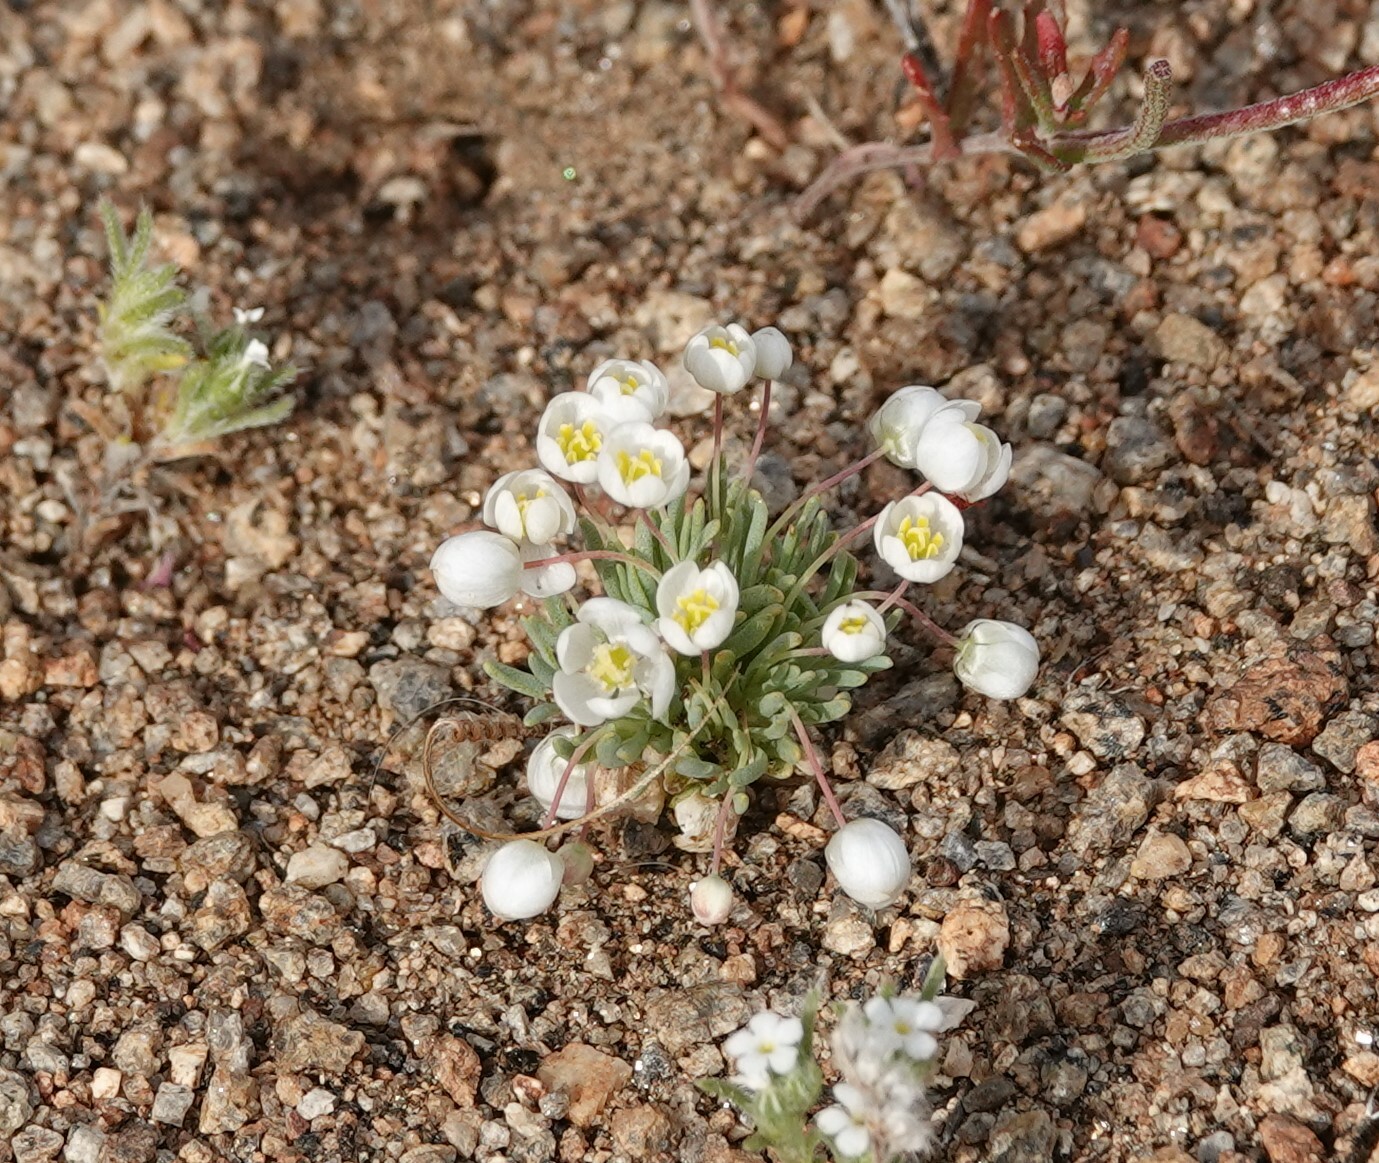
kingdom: Plantae
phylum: Tracheophyta
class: Magnoliopsida
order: Ranunculales
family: Papaveraceae
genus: Canbya
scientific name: Canbya candida
